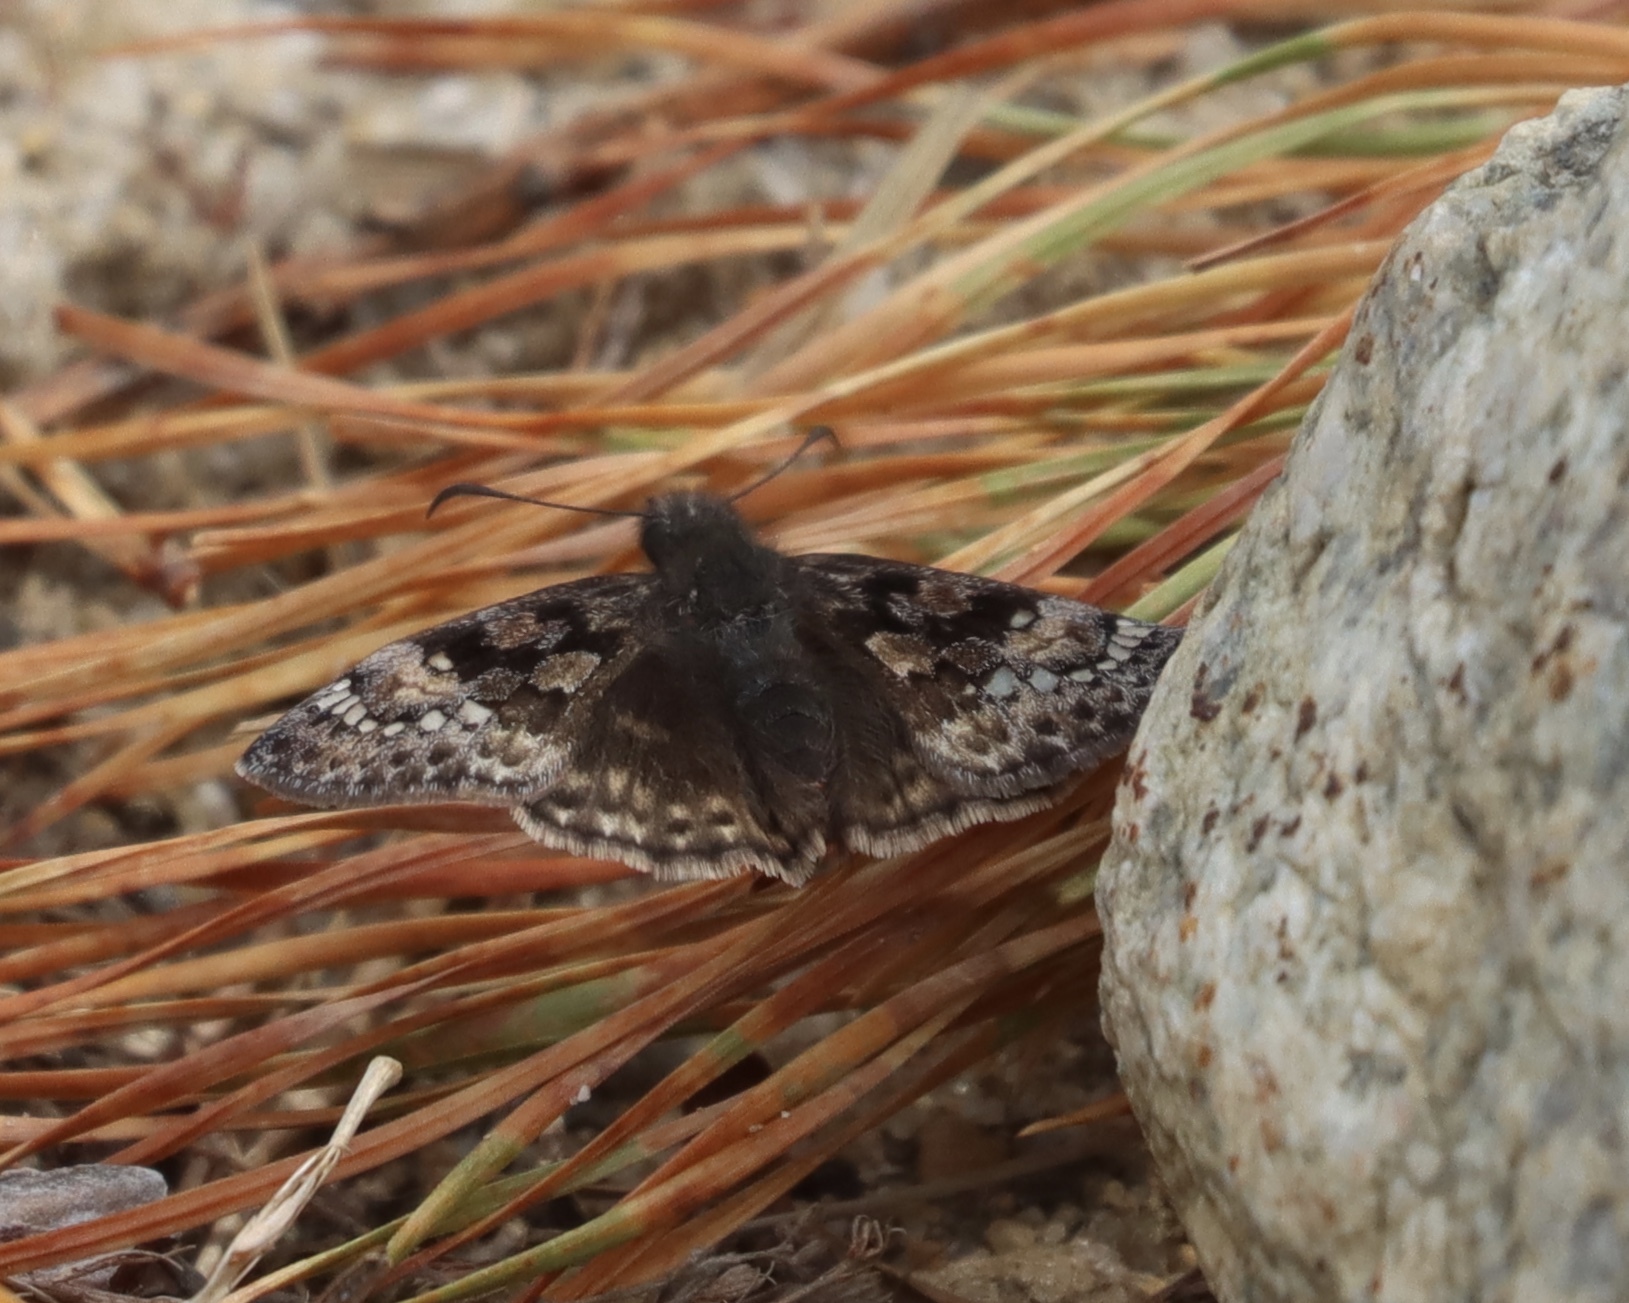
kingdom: Animalia
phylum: Arthropoda
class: Insecta
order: Lepidoptera
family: Hesperiidae
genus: Erynnis
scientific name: Erynnis juvenalis
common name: Juvenal's duskywing
